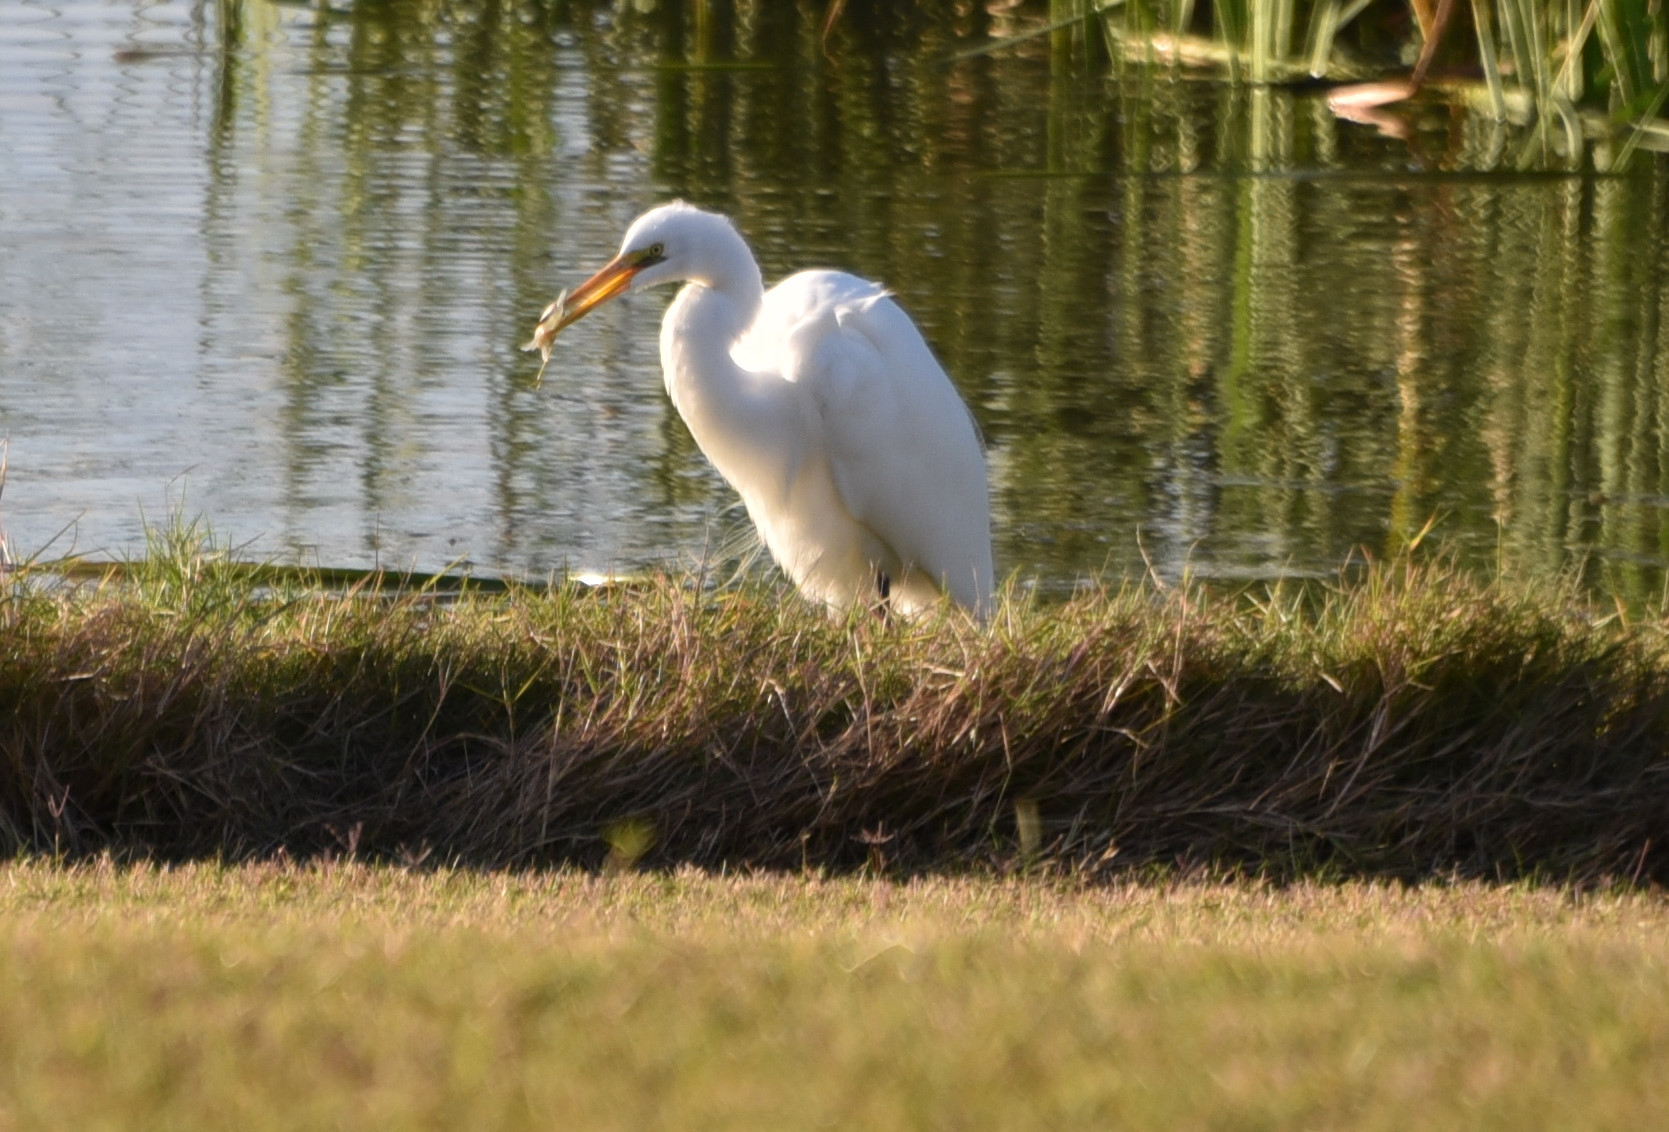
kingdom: Animalia
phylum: Chordata
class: Aves
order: Pelecaniformes
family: Ardeidae
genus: Ardea
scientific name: Ardea alba
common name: Great egret
